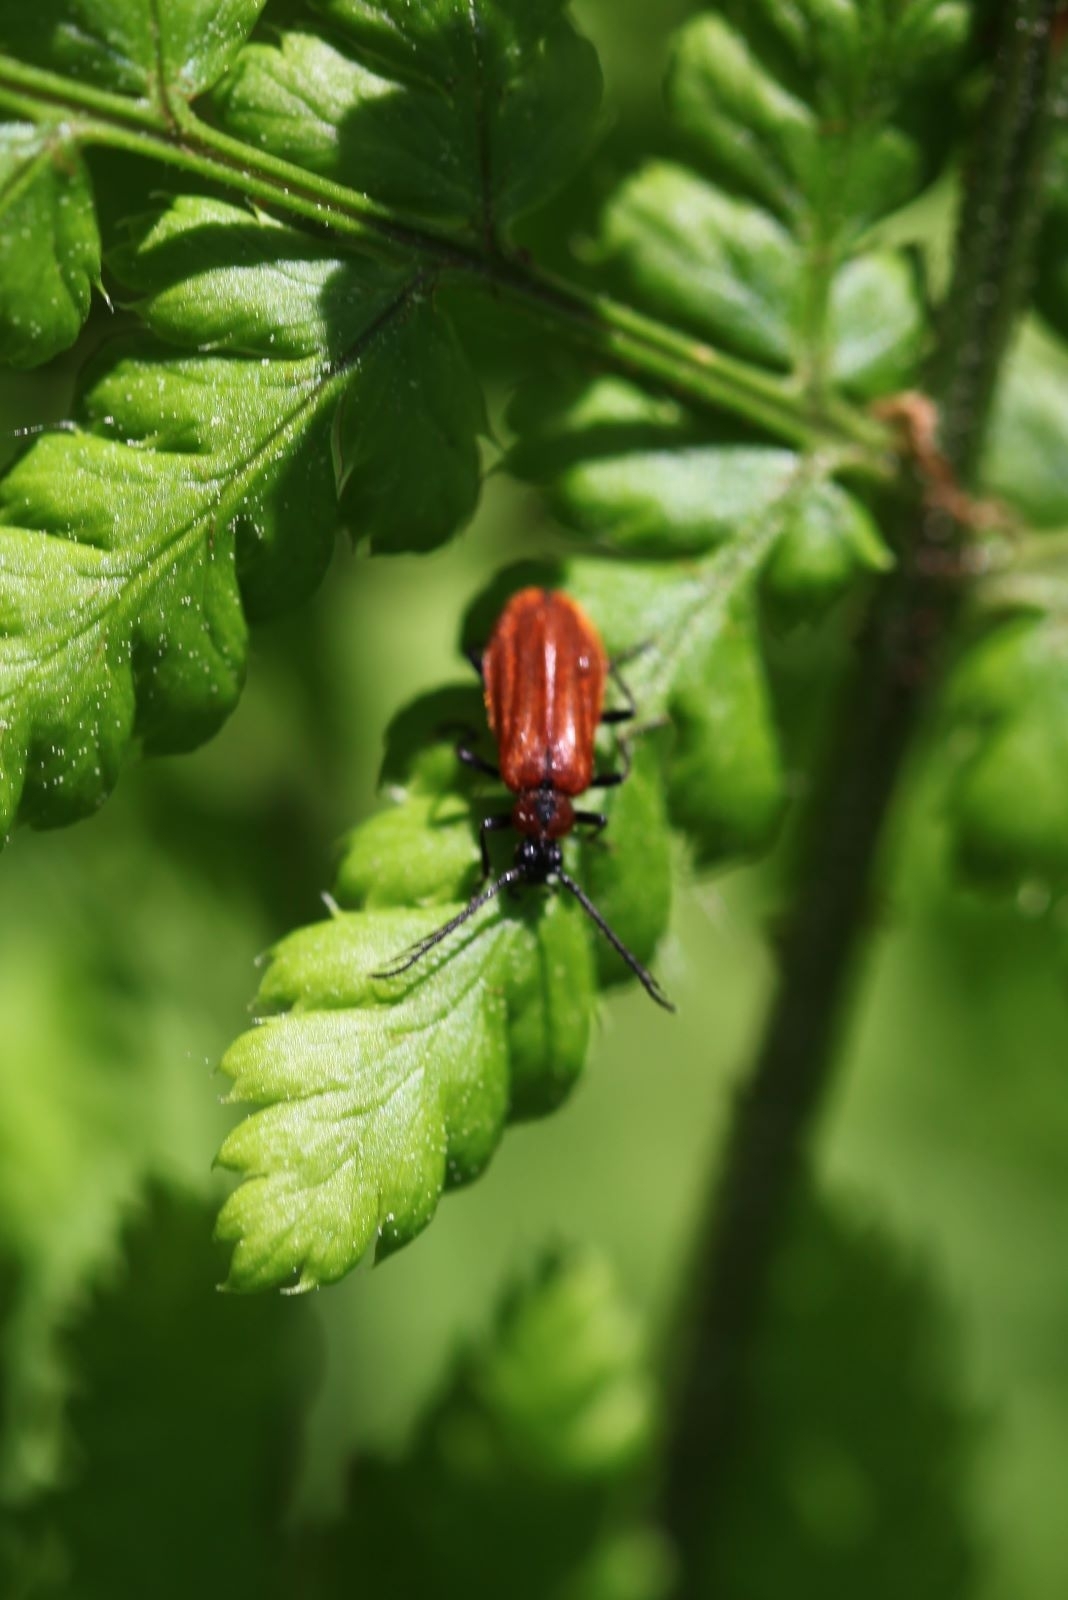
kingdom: Animalia
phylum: Arthropoda
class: Insecta
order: Coleoptera
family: Pyrochroidae
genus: Schizotus
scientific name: Schizotus pectinicornis
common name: Scarce cardinal beetle
